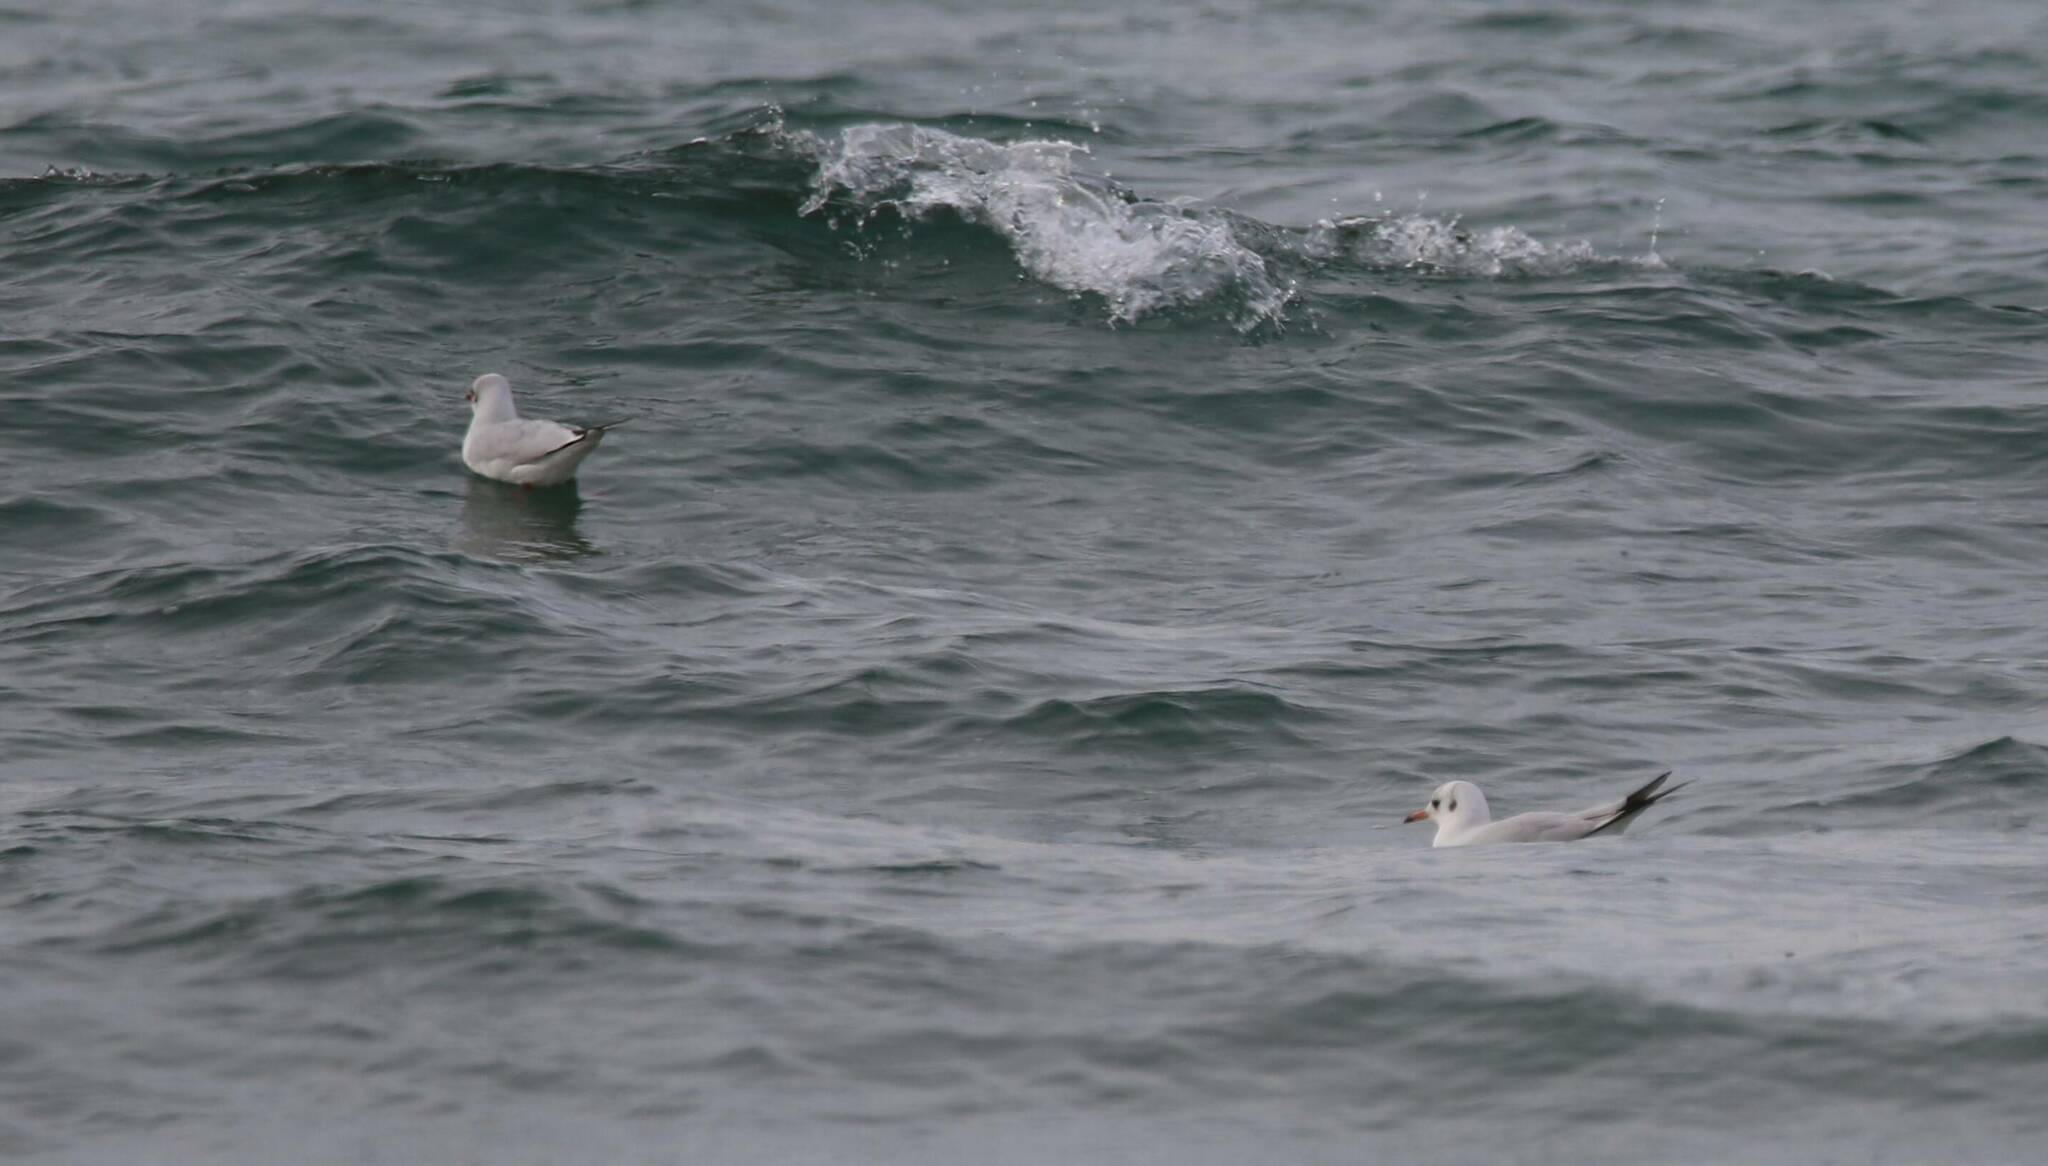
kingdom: Animalia
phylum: Chordata
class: Aves
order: Charadriiformes
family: Laridae
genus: Chroicocephalus
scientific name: Chroicocephalus ridibundus
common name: Black-headed gull
